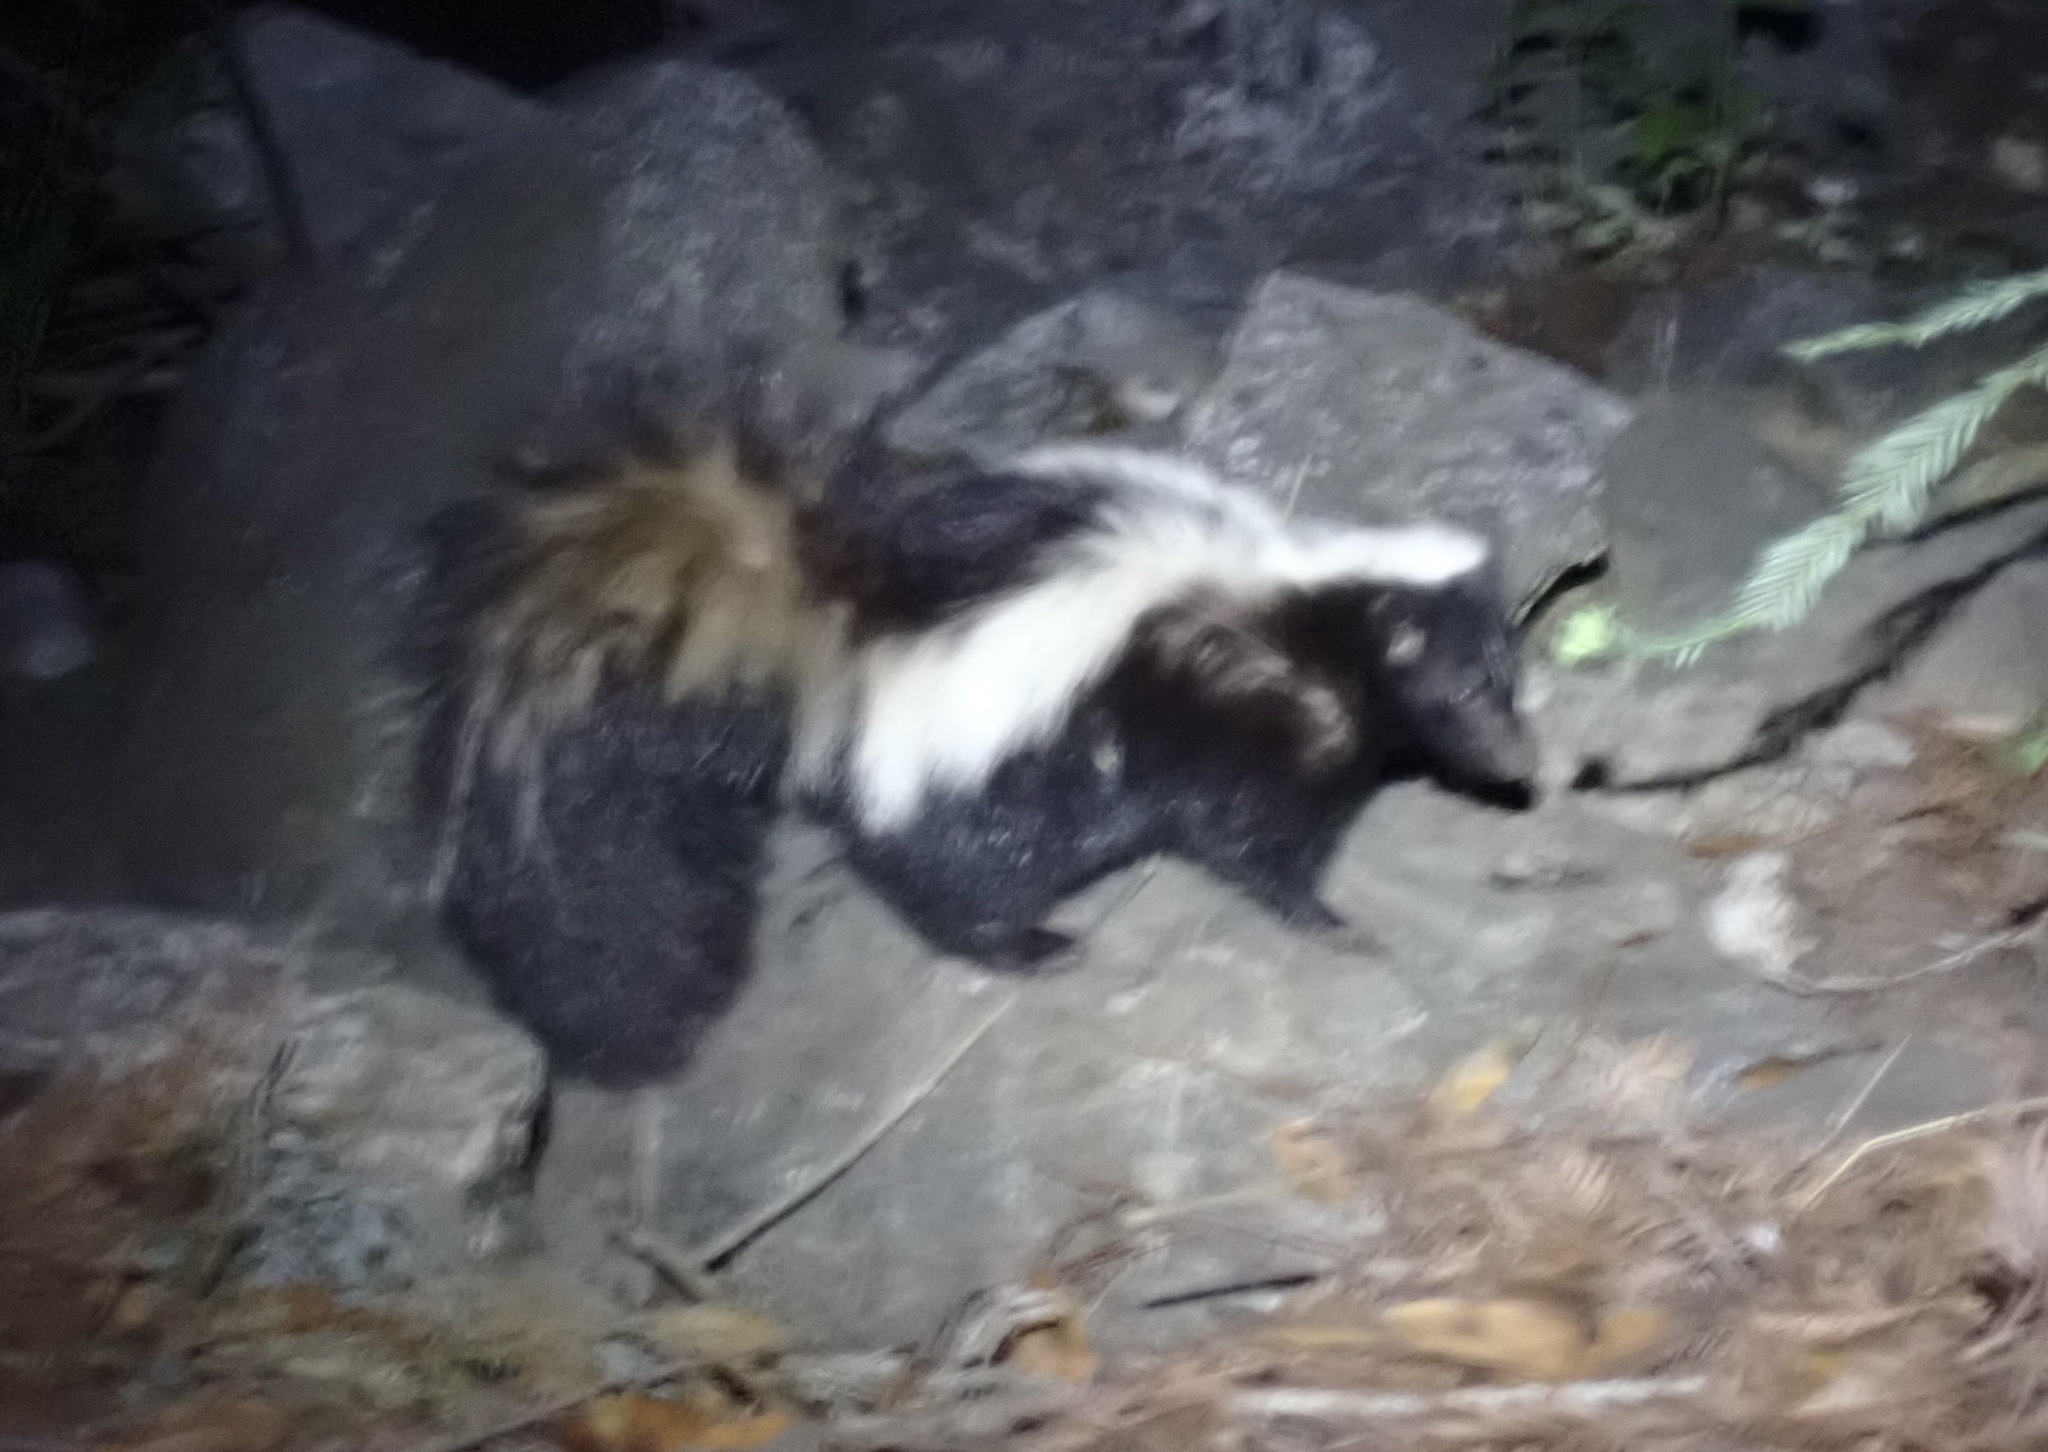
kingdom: Animalia
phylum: Chordata
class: Mammalia
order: Carnivora
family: Mephitidae
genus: Mephitis
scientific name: Mephitis mephitis
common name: Striped skunk
